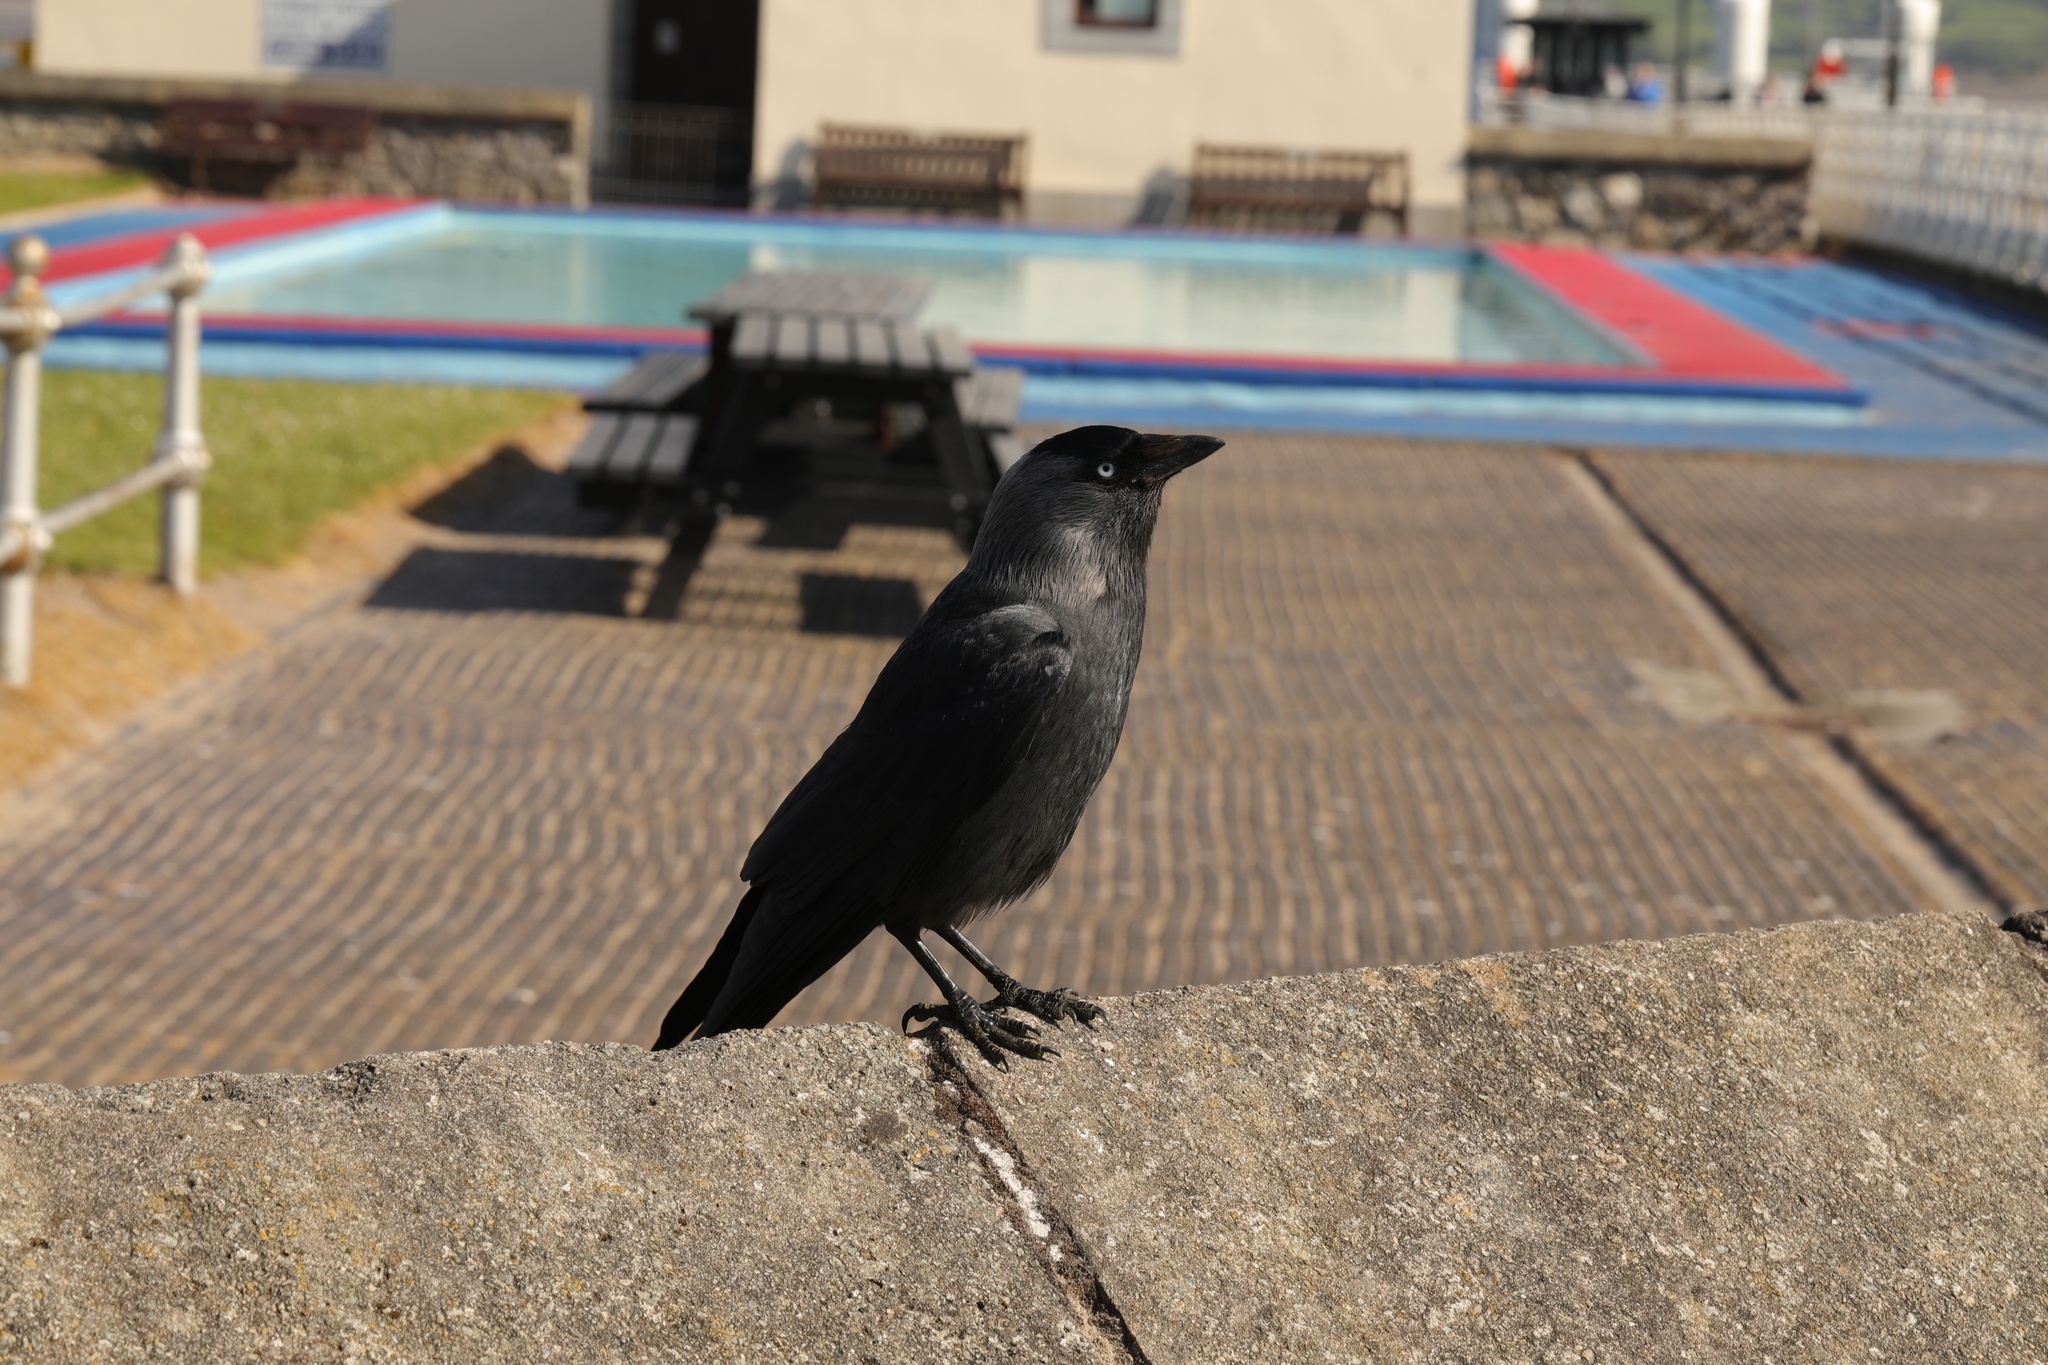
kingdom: Animalia
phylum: Chordata
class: Aves
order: Passeriformes
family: Corvidae
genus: Coloeus
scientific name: Coloeus monedula
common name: Western jackdaw
